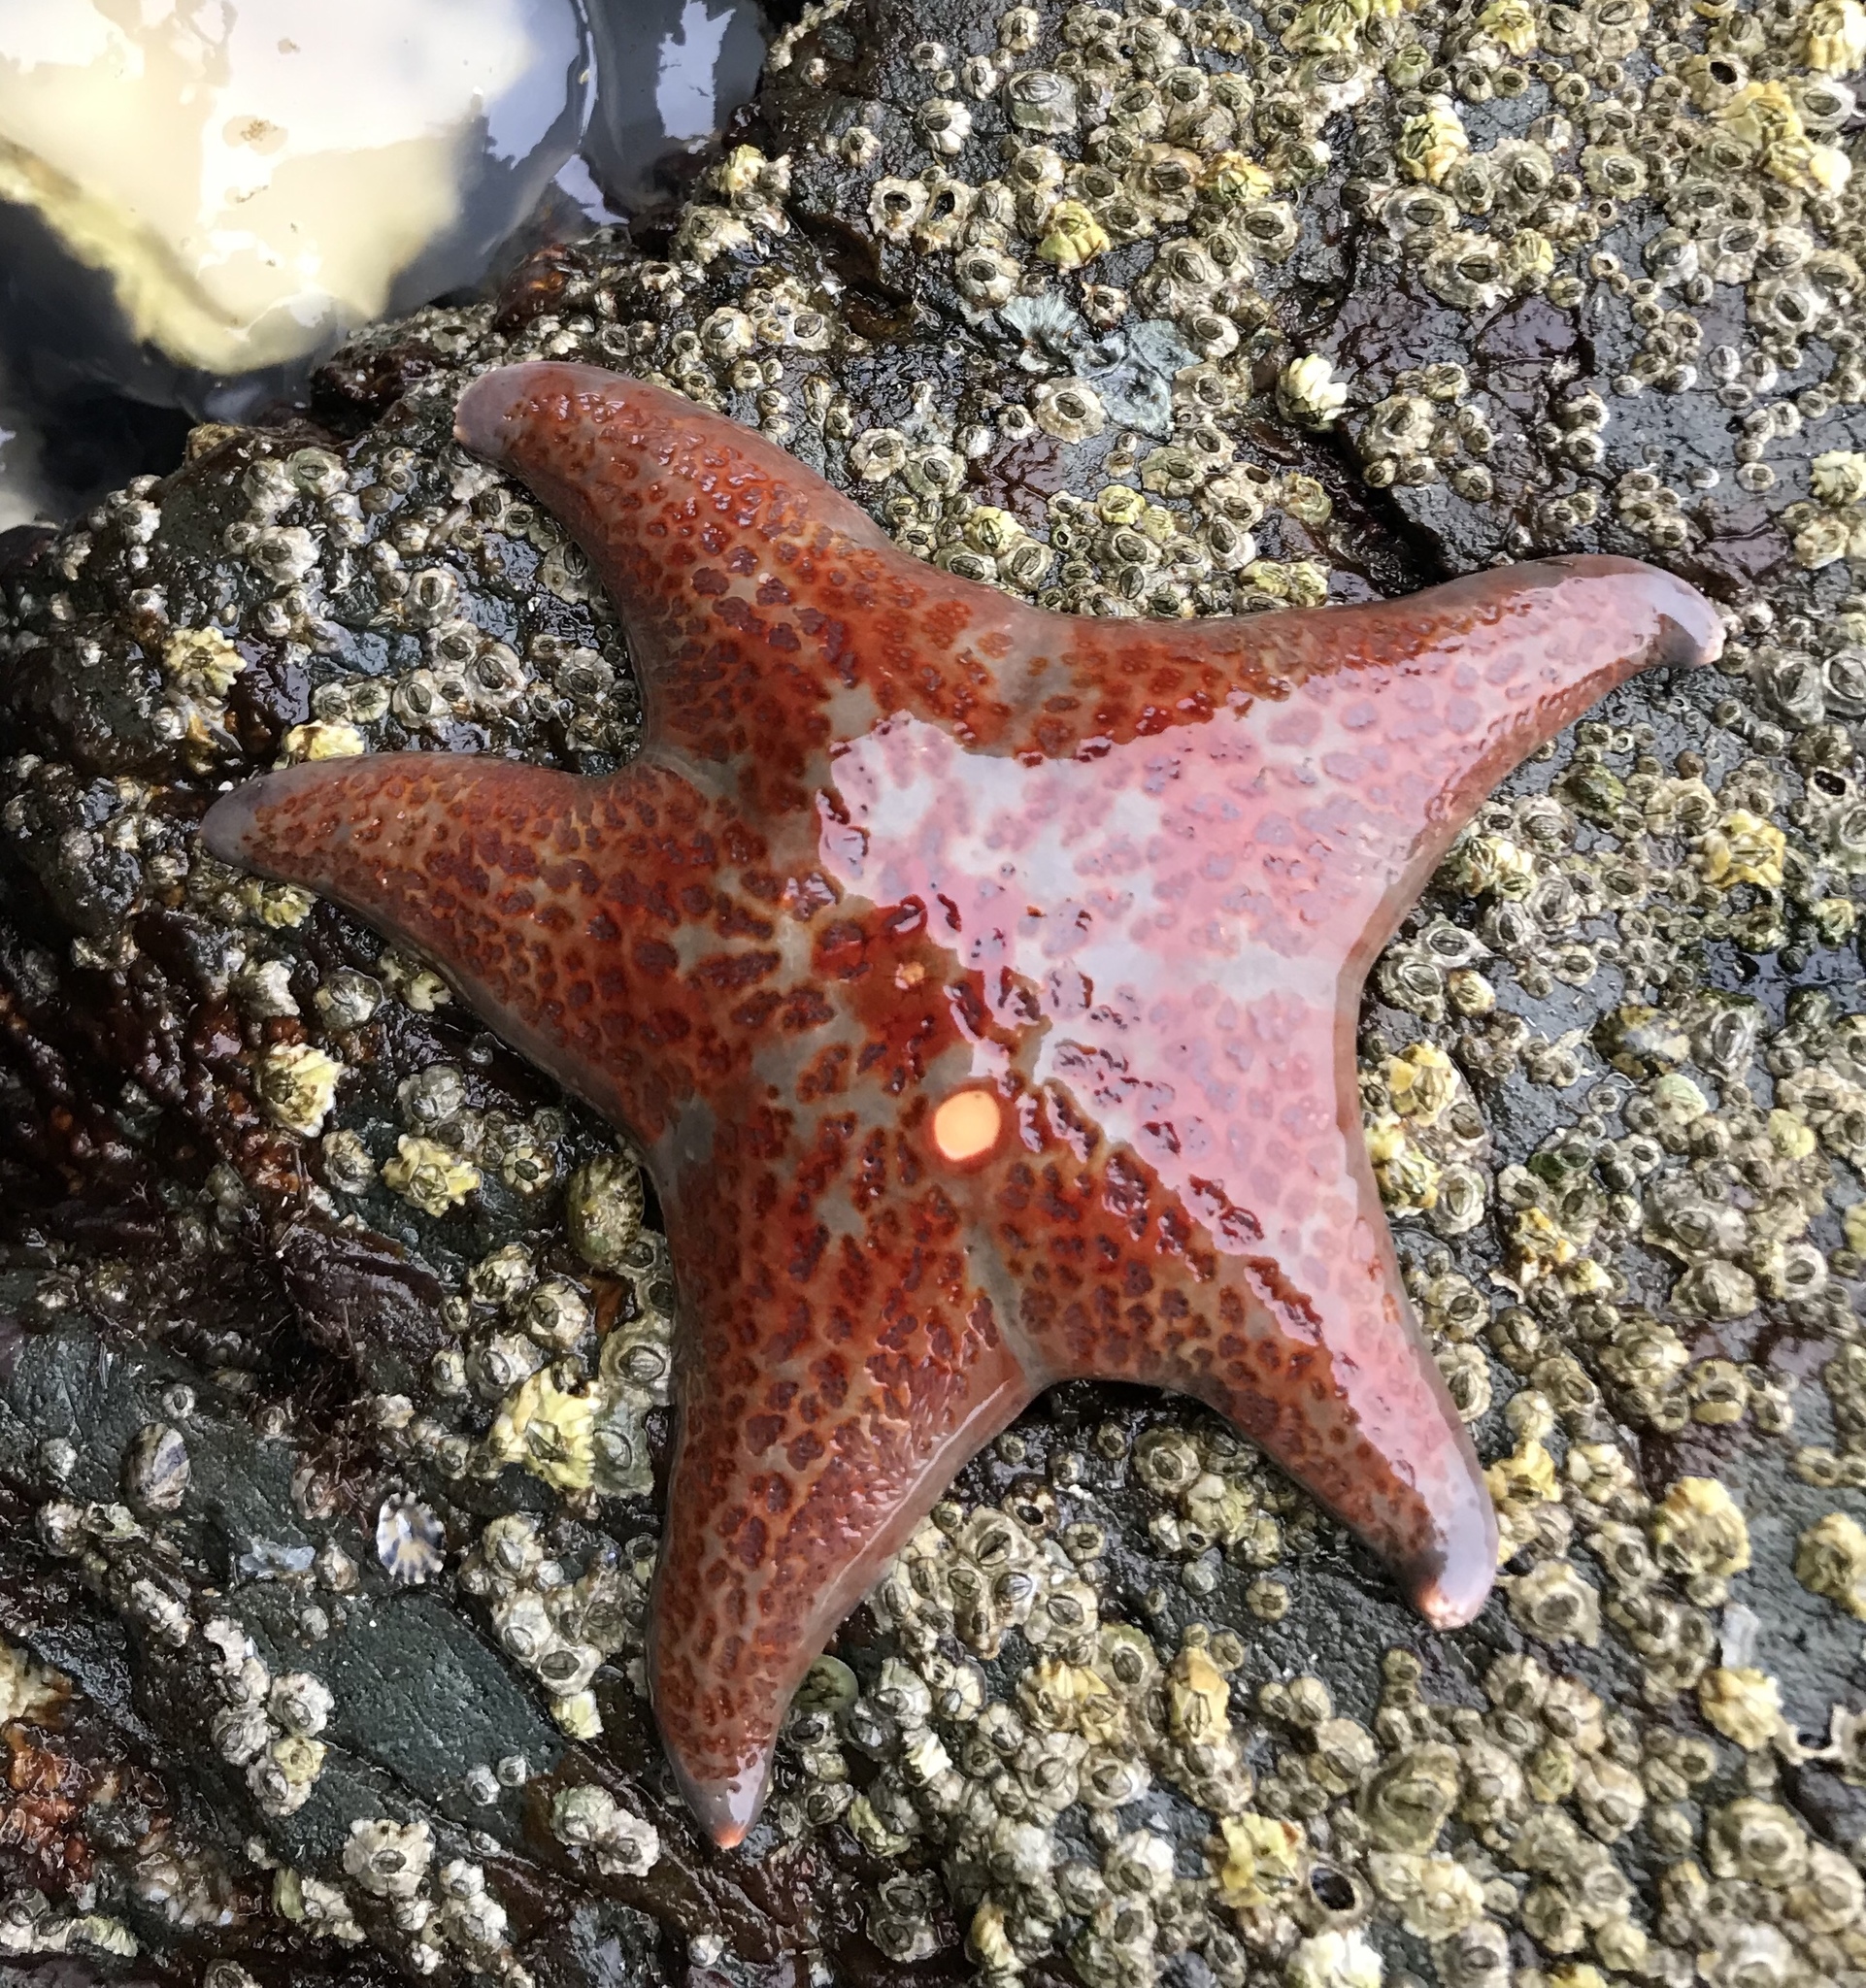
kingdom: Animalia
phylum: Echinodermata
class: Asteroidea
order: Valvatida
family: Asteropseidae
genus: Dermasterias
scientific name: Dermasterias imbricata
